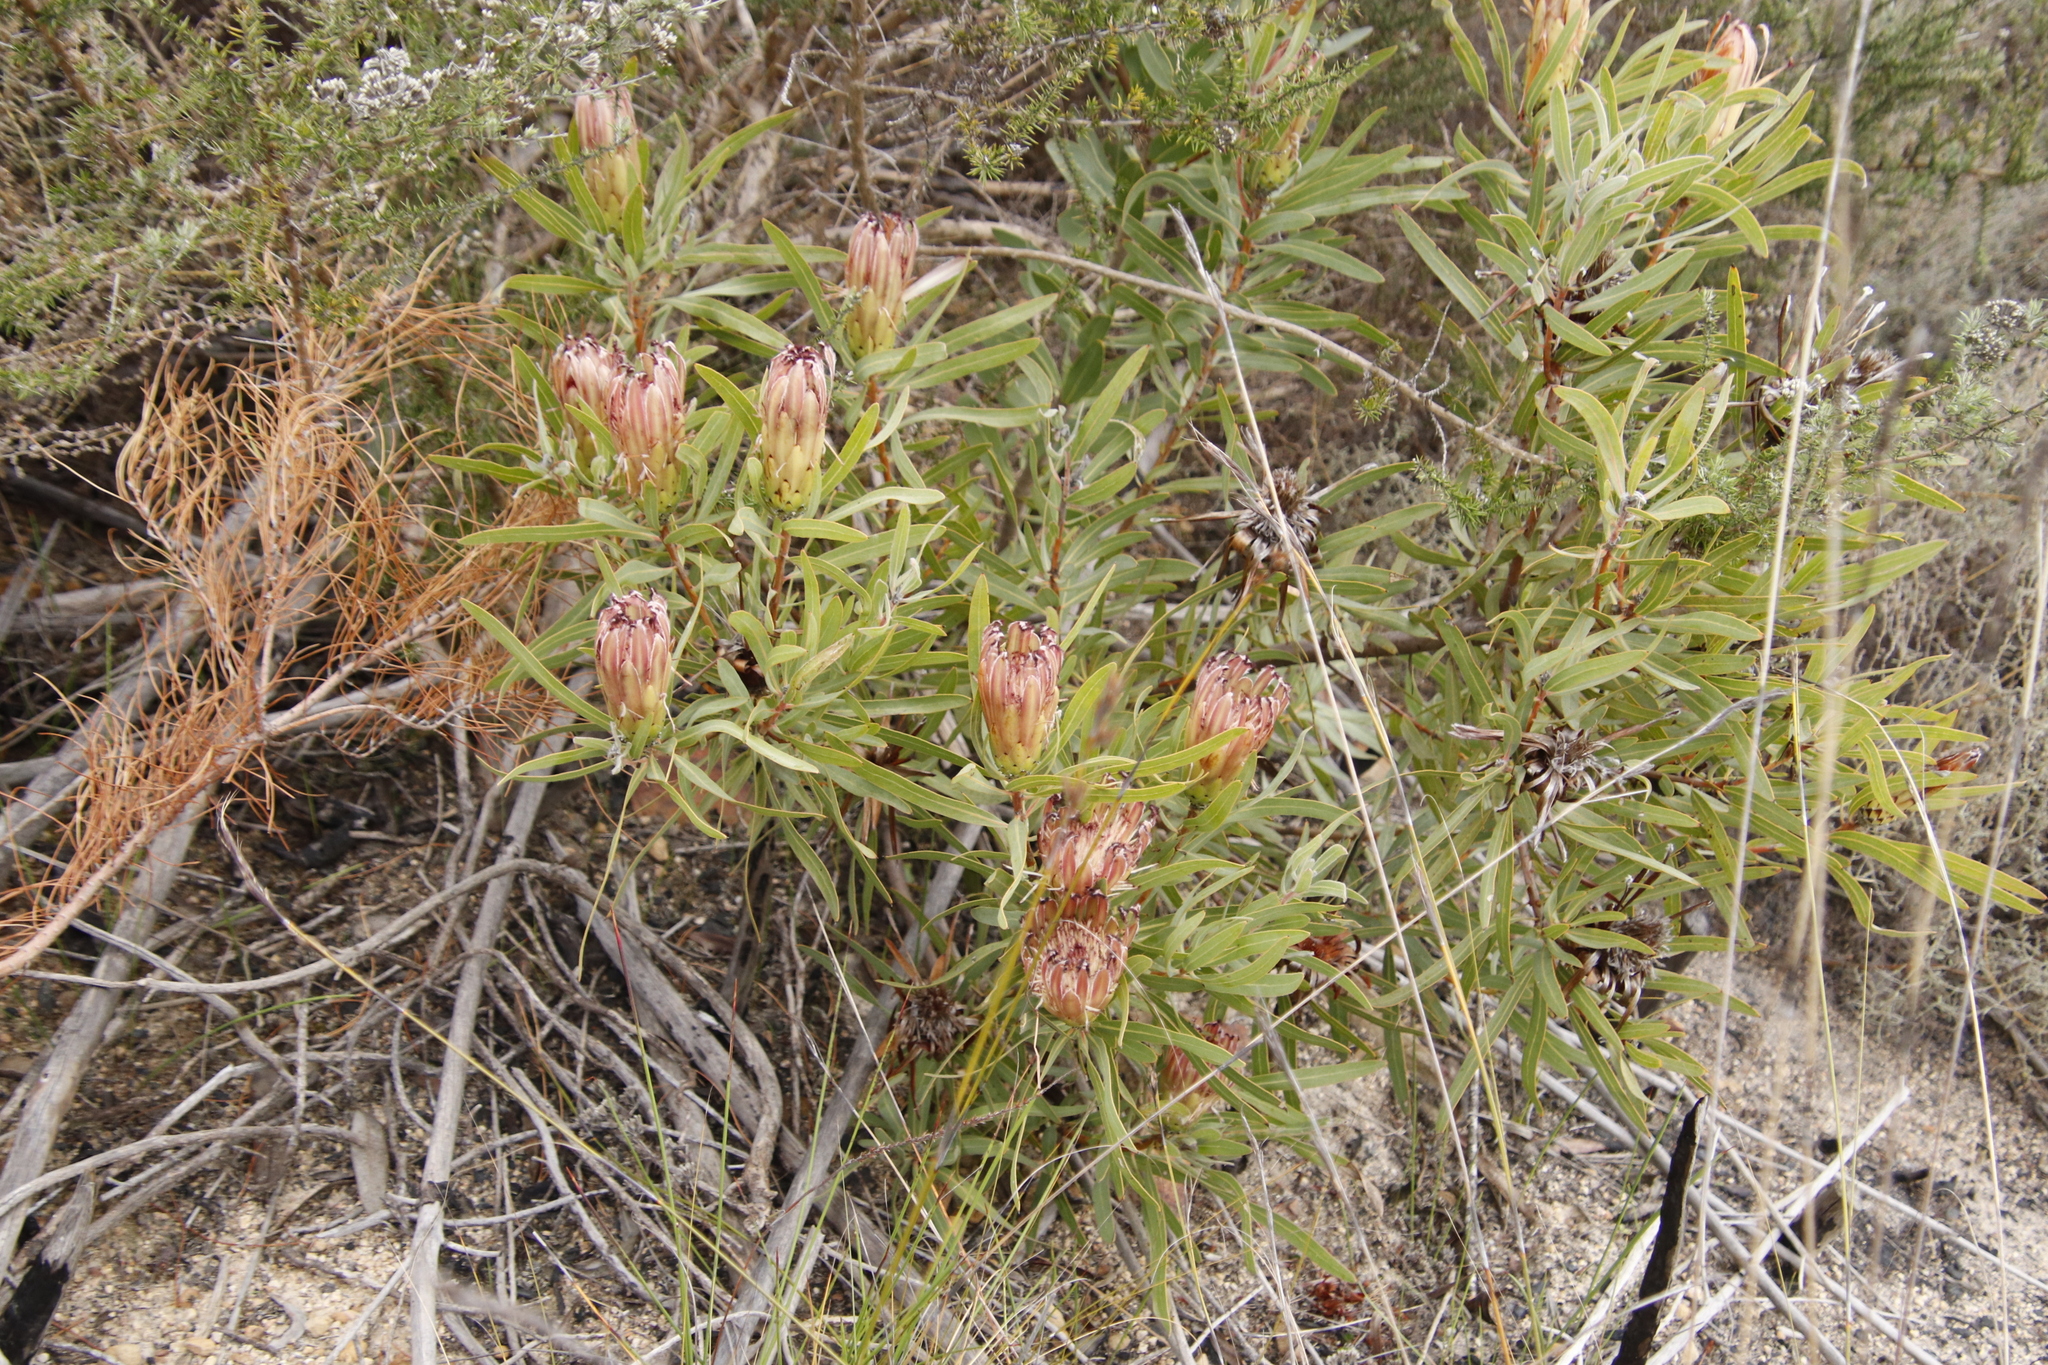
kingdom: Plantae
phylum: Tracheophyta
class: Magnoliopsida
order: Proteales
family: Proteaceae
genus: Protea
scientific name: Protea burchellii
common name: Burchell's sugarbush
